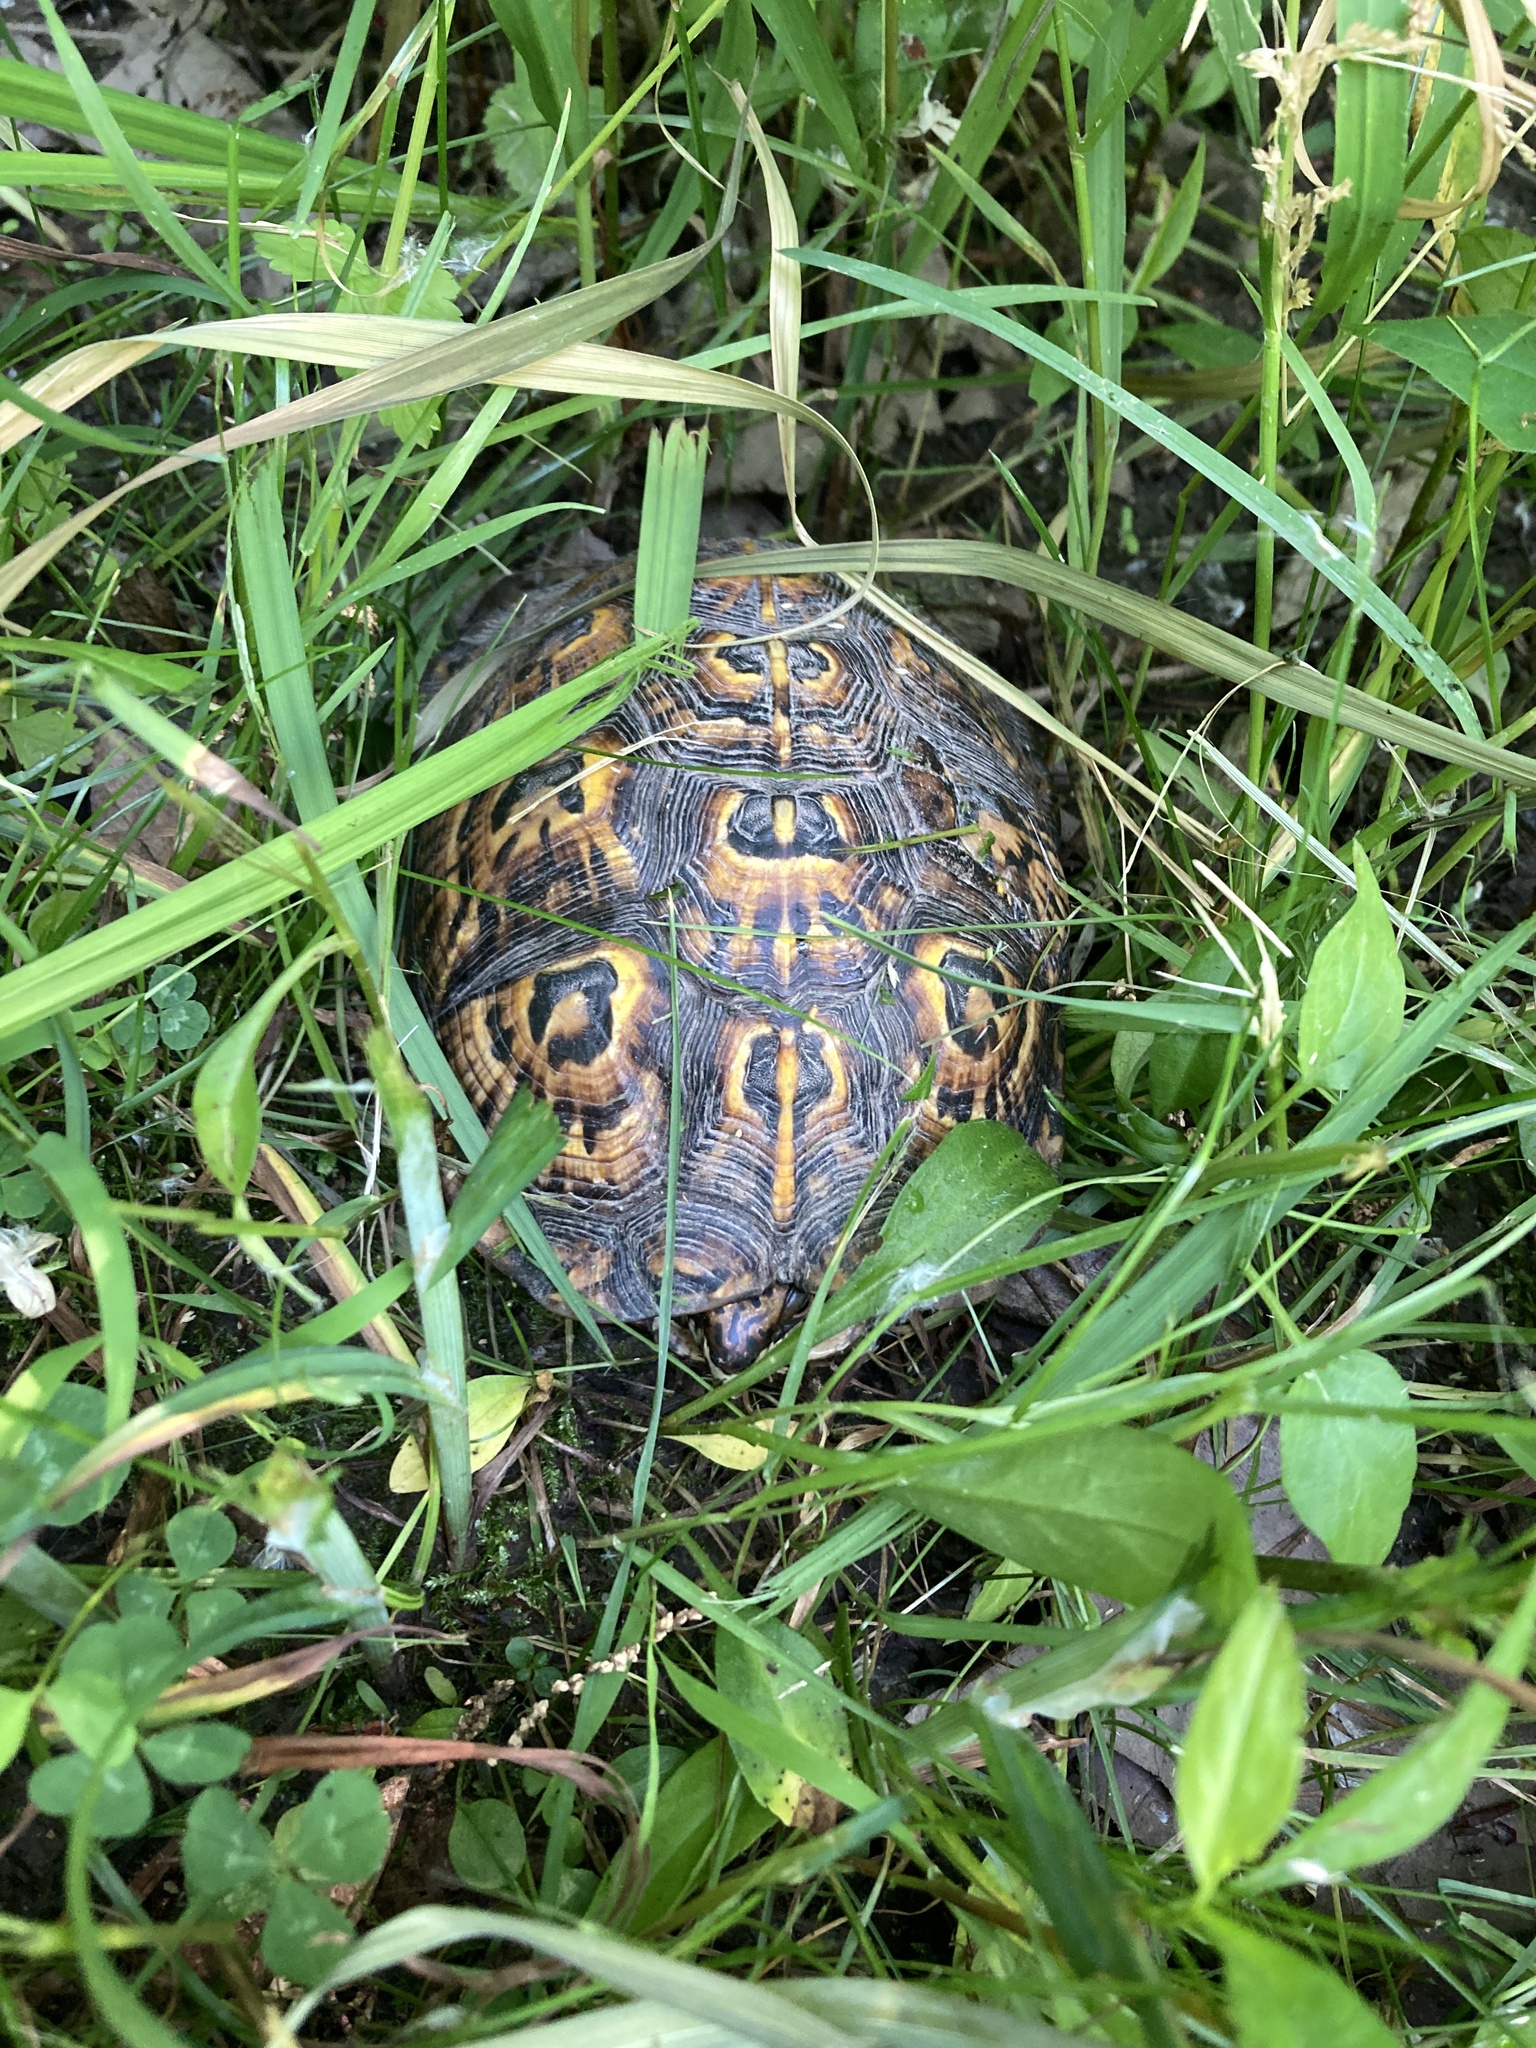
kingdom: Animalia
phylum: Chordata
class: Testudines
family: Emydidae
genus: Terrapene
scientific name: Terrapene carolina
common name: Common box turtle
